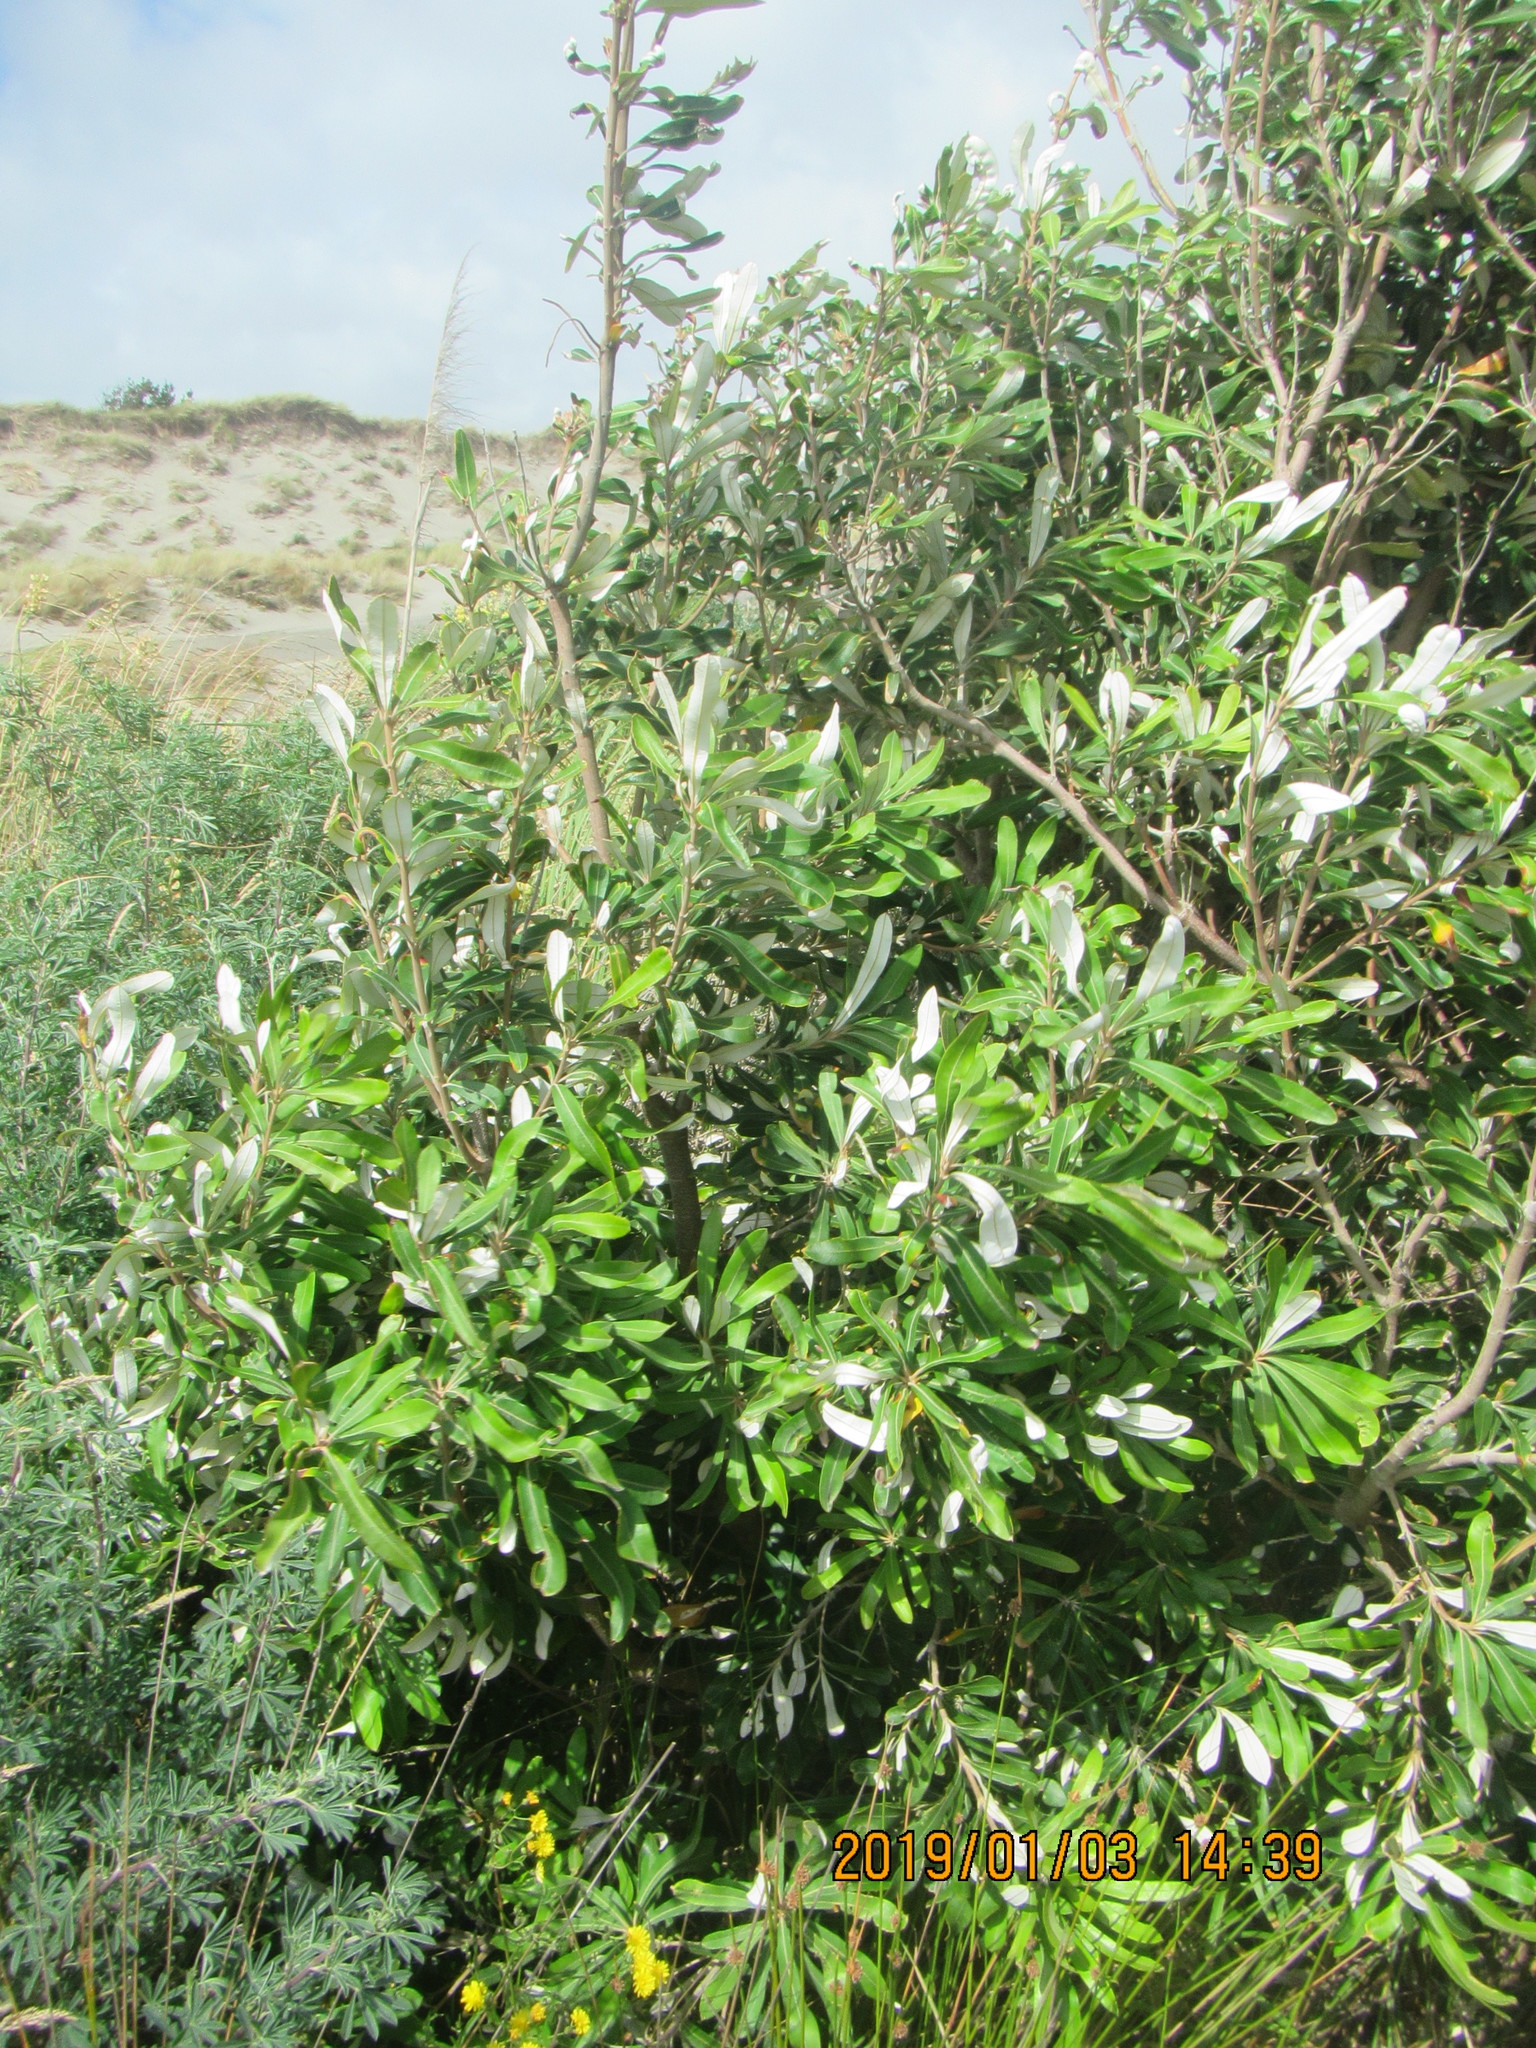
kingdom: Plantae
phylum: Tracheophyta
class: Magnoliopsida
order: Proteales
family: Proteaceae
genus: Banksia
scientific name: Banksia integrifolia
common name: White-honeysuckle
